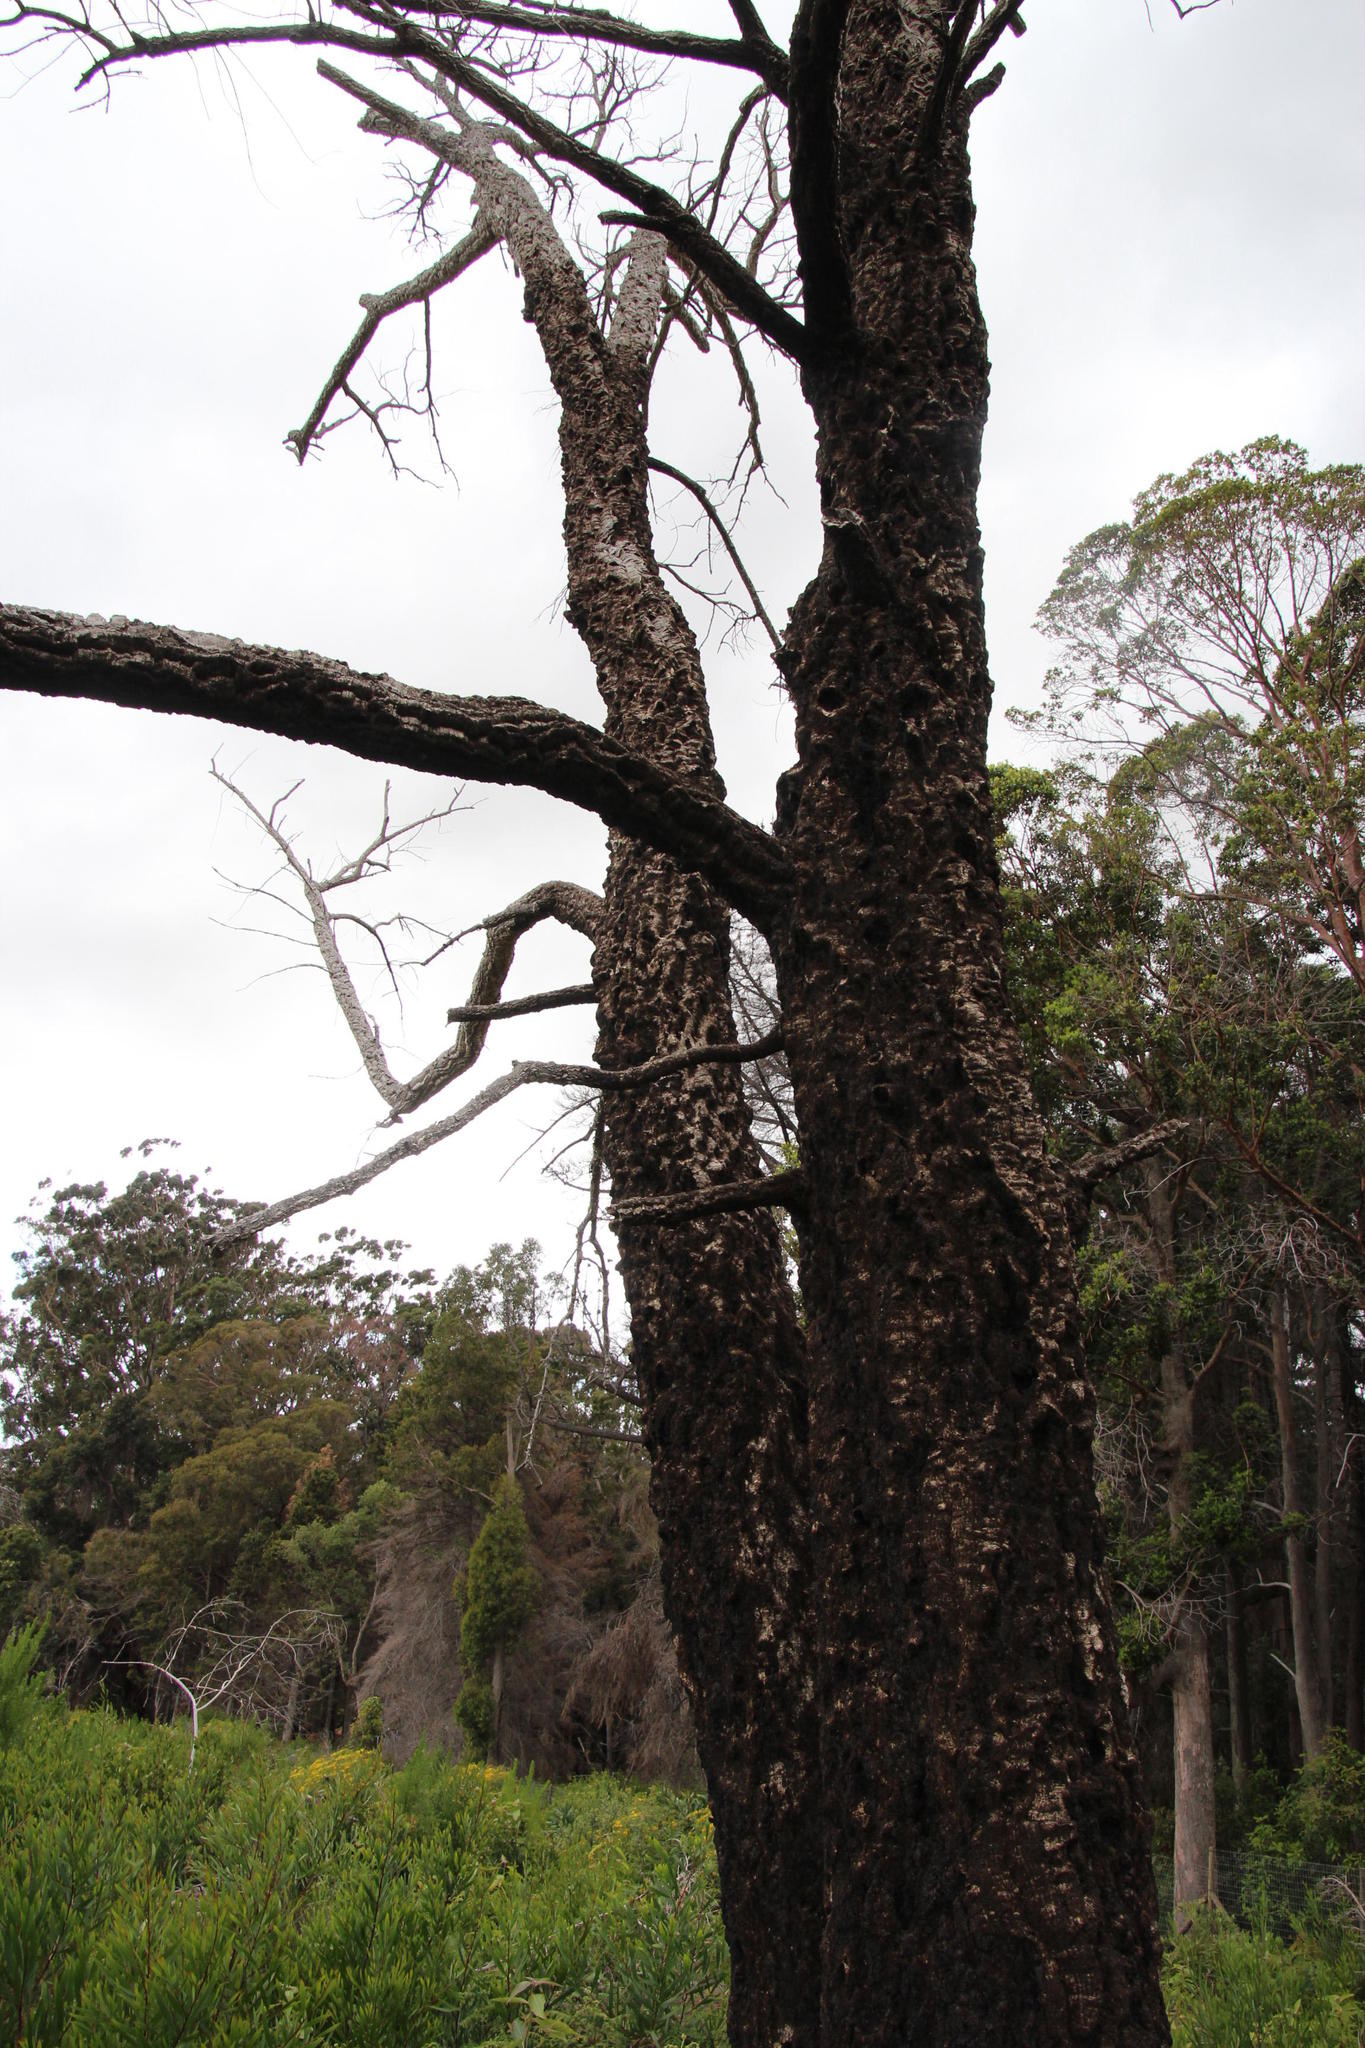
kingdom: Plantae
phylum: Tracheophyta
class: Magnoliopsida
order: Fagales
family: Fagaceae
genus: Quercus
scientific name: Quercus suber
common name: Cork oak
